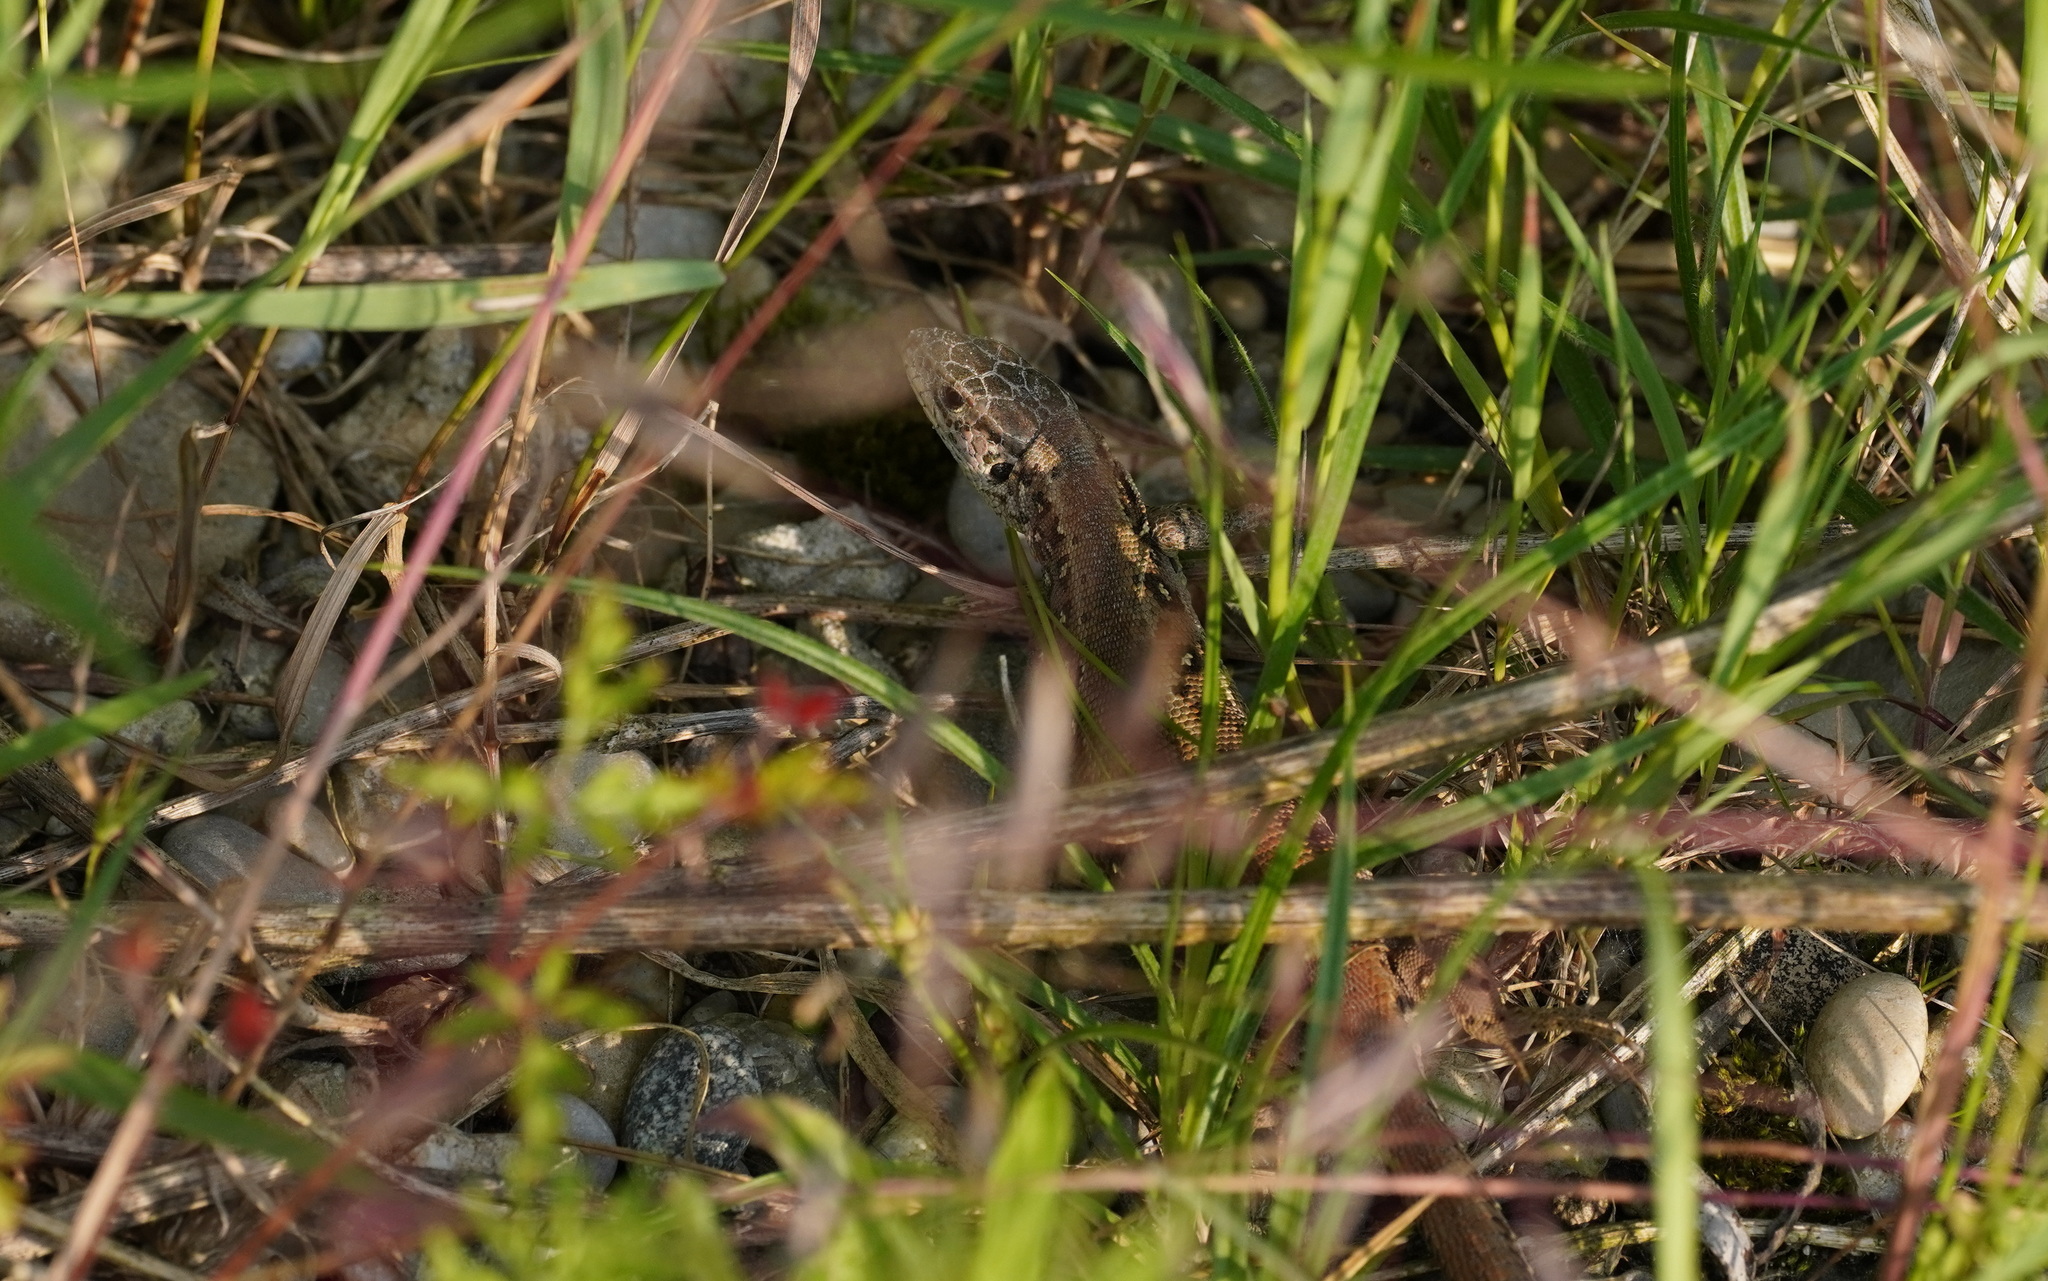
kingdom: Animalia
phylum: Chordata
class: Squamata
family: Lacertidae
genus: Lacerta
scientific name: Lacerta agilis
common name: Sand lizard
